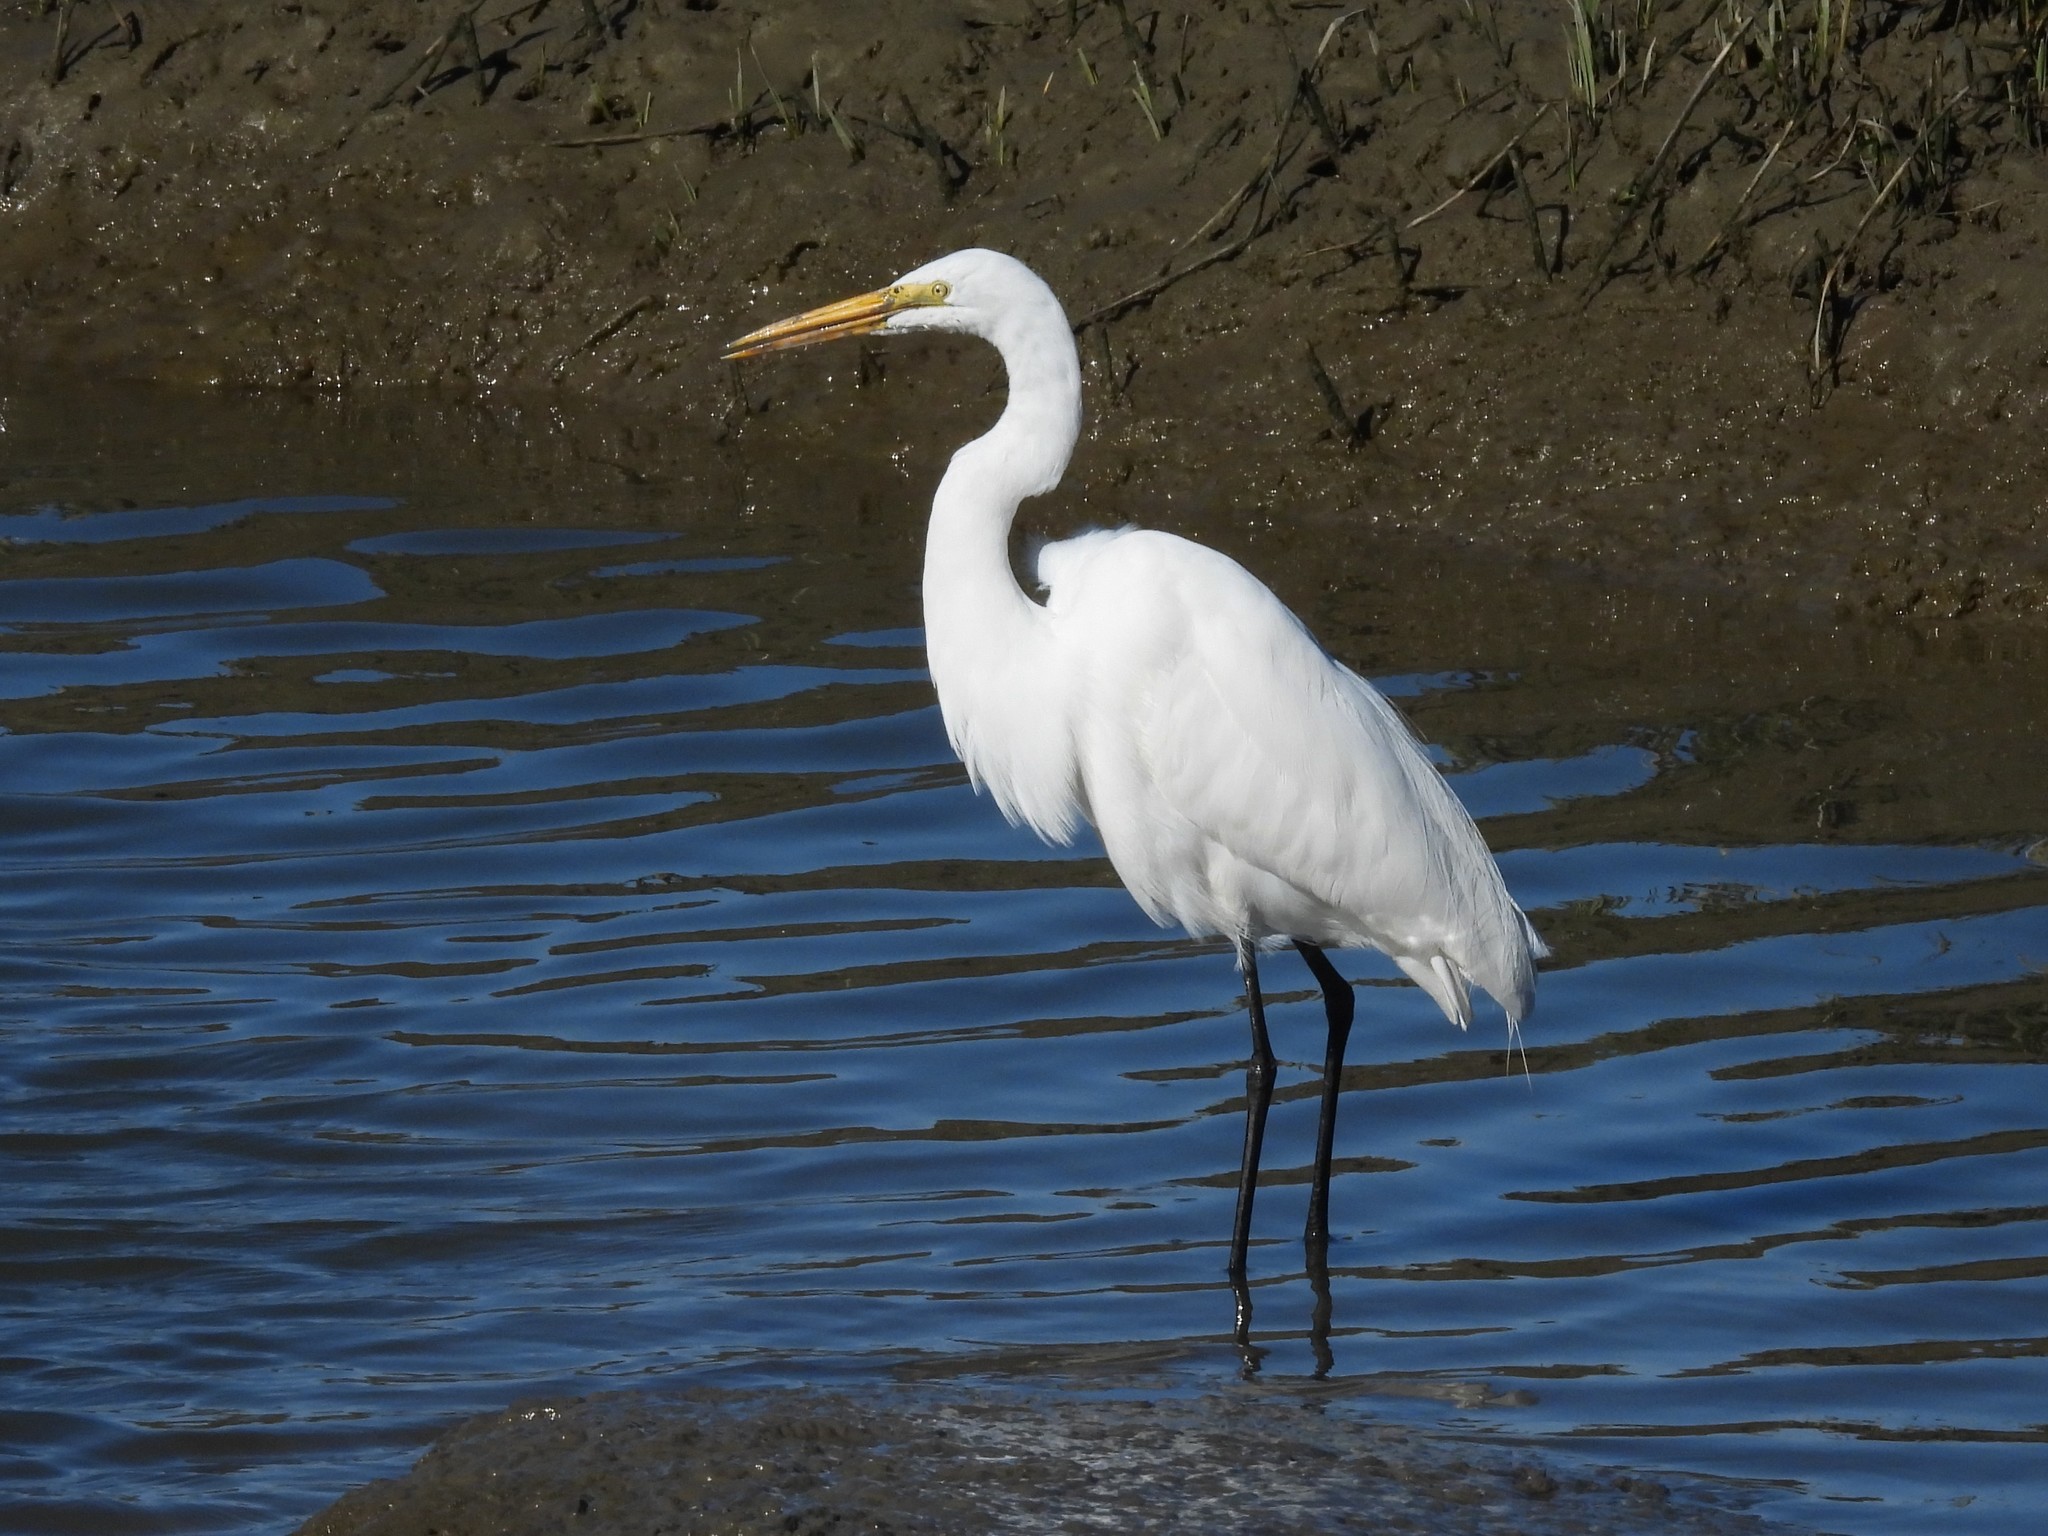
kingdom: Animalia
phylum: Chordata
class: Aves
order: Pelecaniformes
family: Ardeidae
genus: Ardea
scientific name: Ardea alba
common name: Great egret
